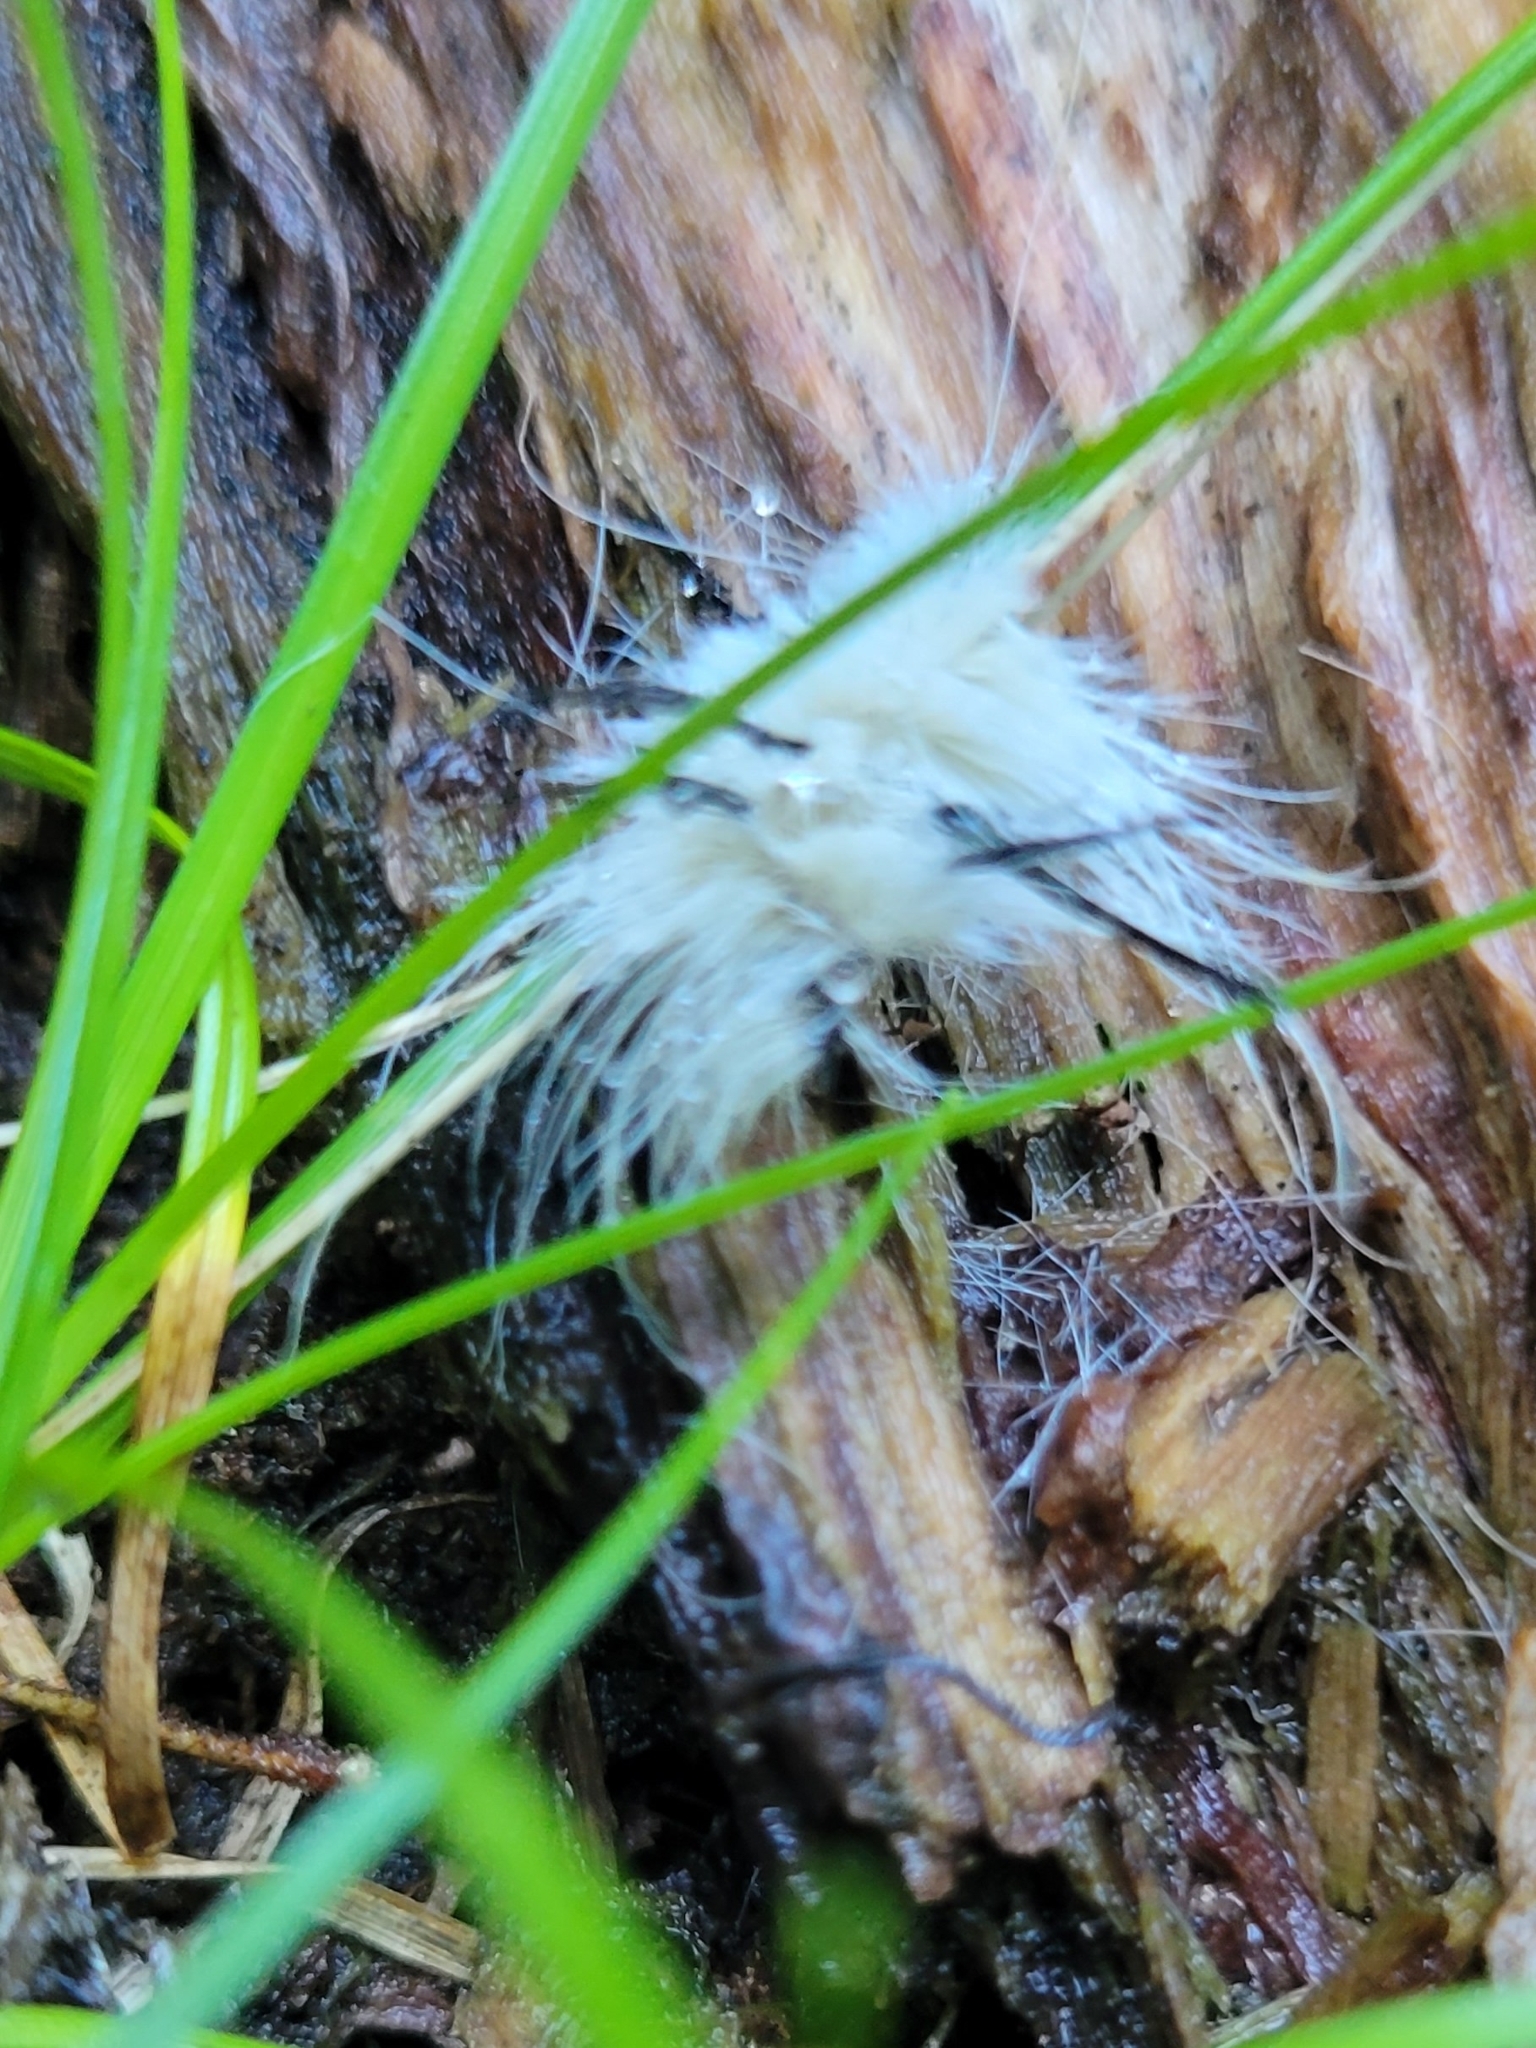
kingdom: Animalia
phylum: Arthropoda
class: Insecta
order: Lepidoptera
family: Noctuidae
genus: Acronicta
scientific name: Acronicta americana
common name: American dagger
